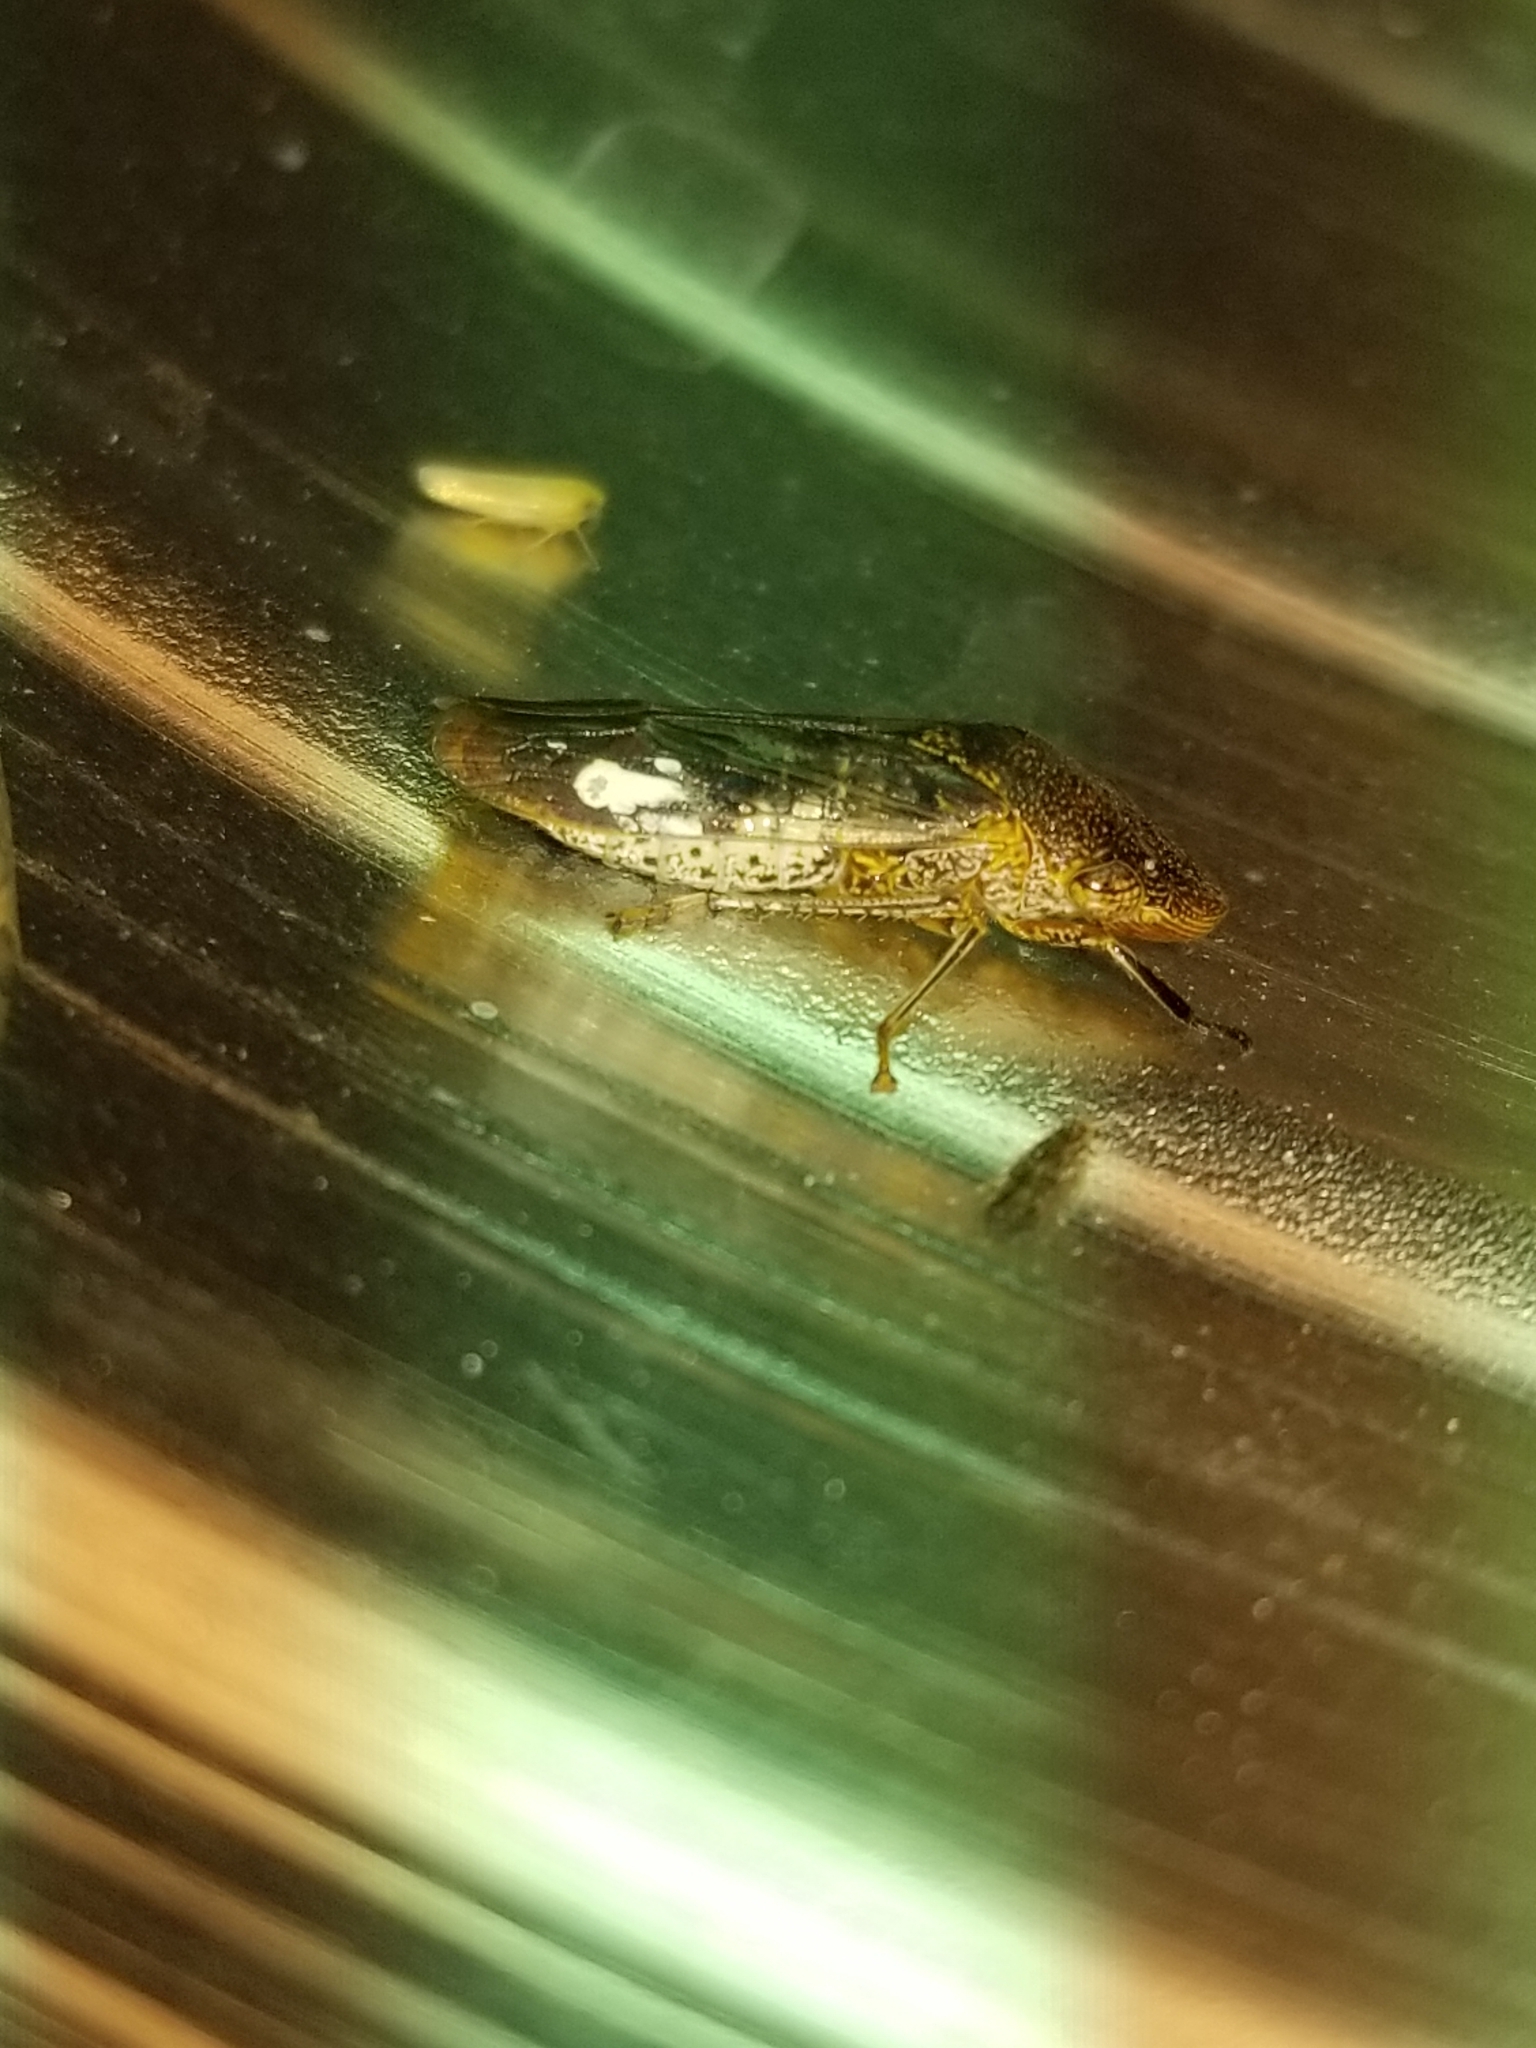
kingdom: Animalia
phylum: Arthropoda
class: Insecta
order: Hemiptera
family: Cicadellidae
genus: Homalodisca
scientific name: Homalodisca vitripennis
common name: Glassy-winged sharpshooter
